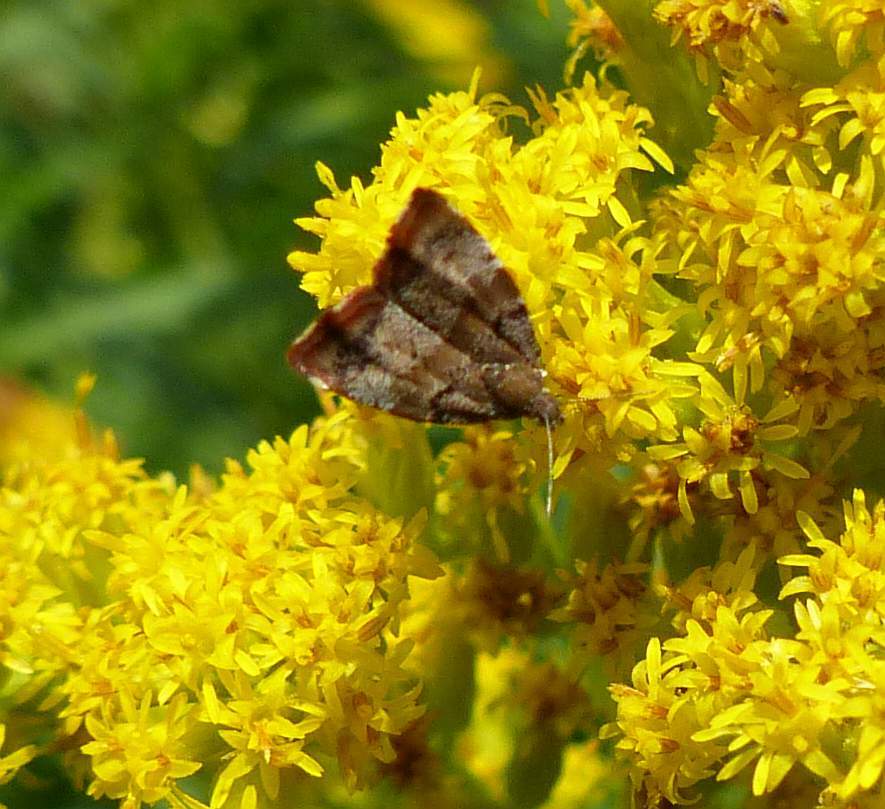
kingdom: Animalia
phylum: Arthropoda
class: Insecta
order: Lepidoptera
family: Choreutidae
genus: Choreutis
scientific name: Choreutis pariana
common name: Apple leaf skeletoniser
